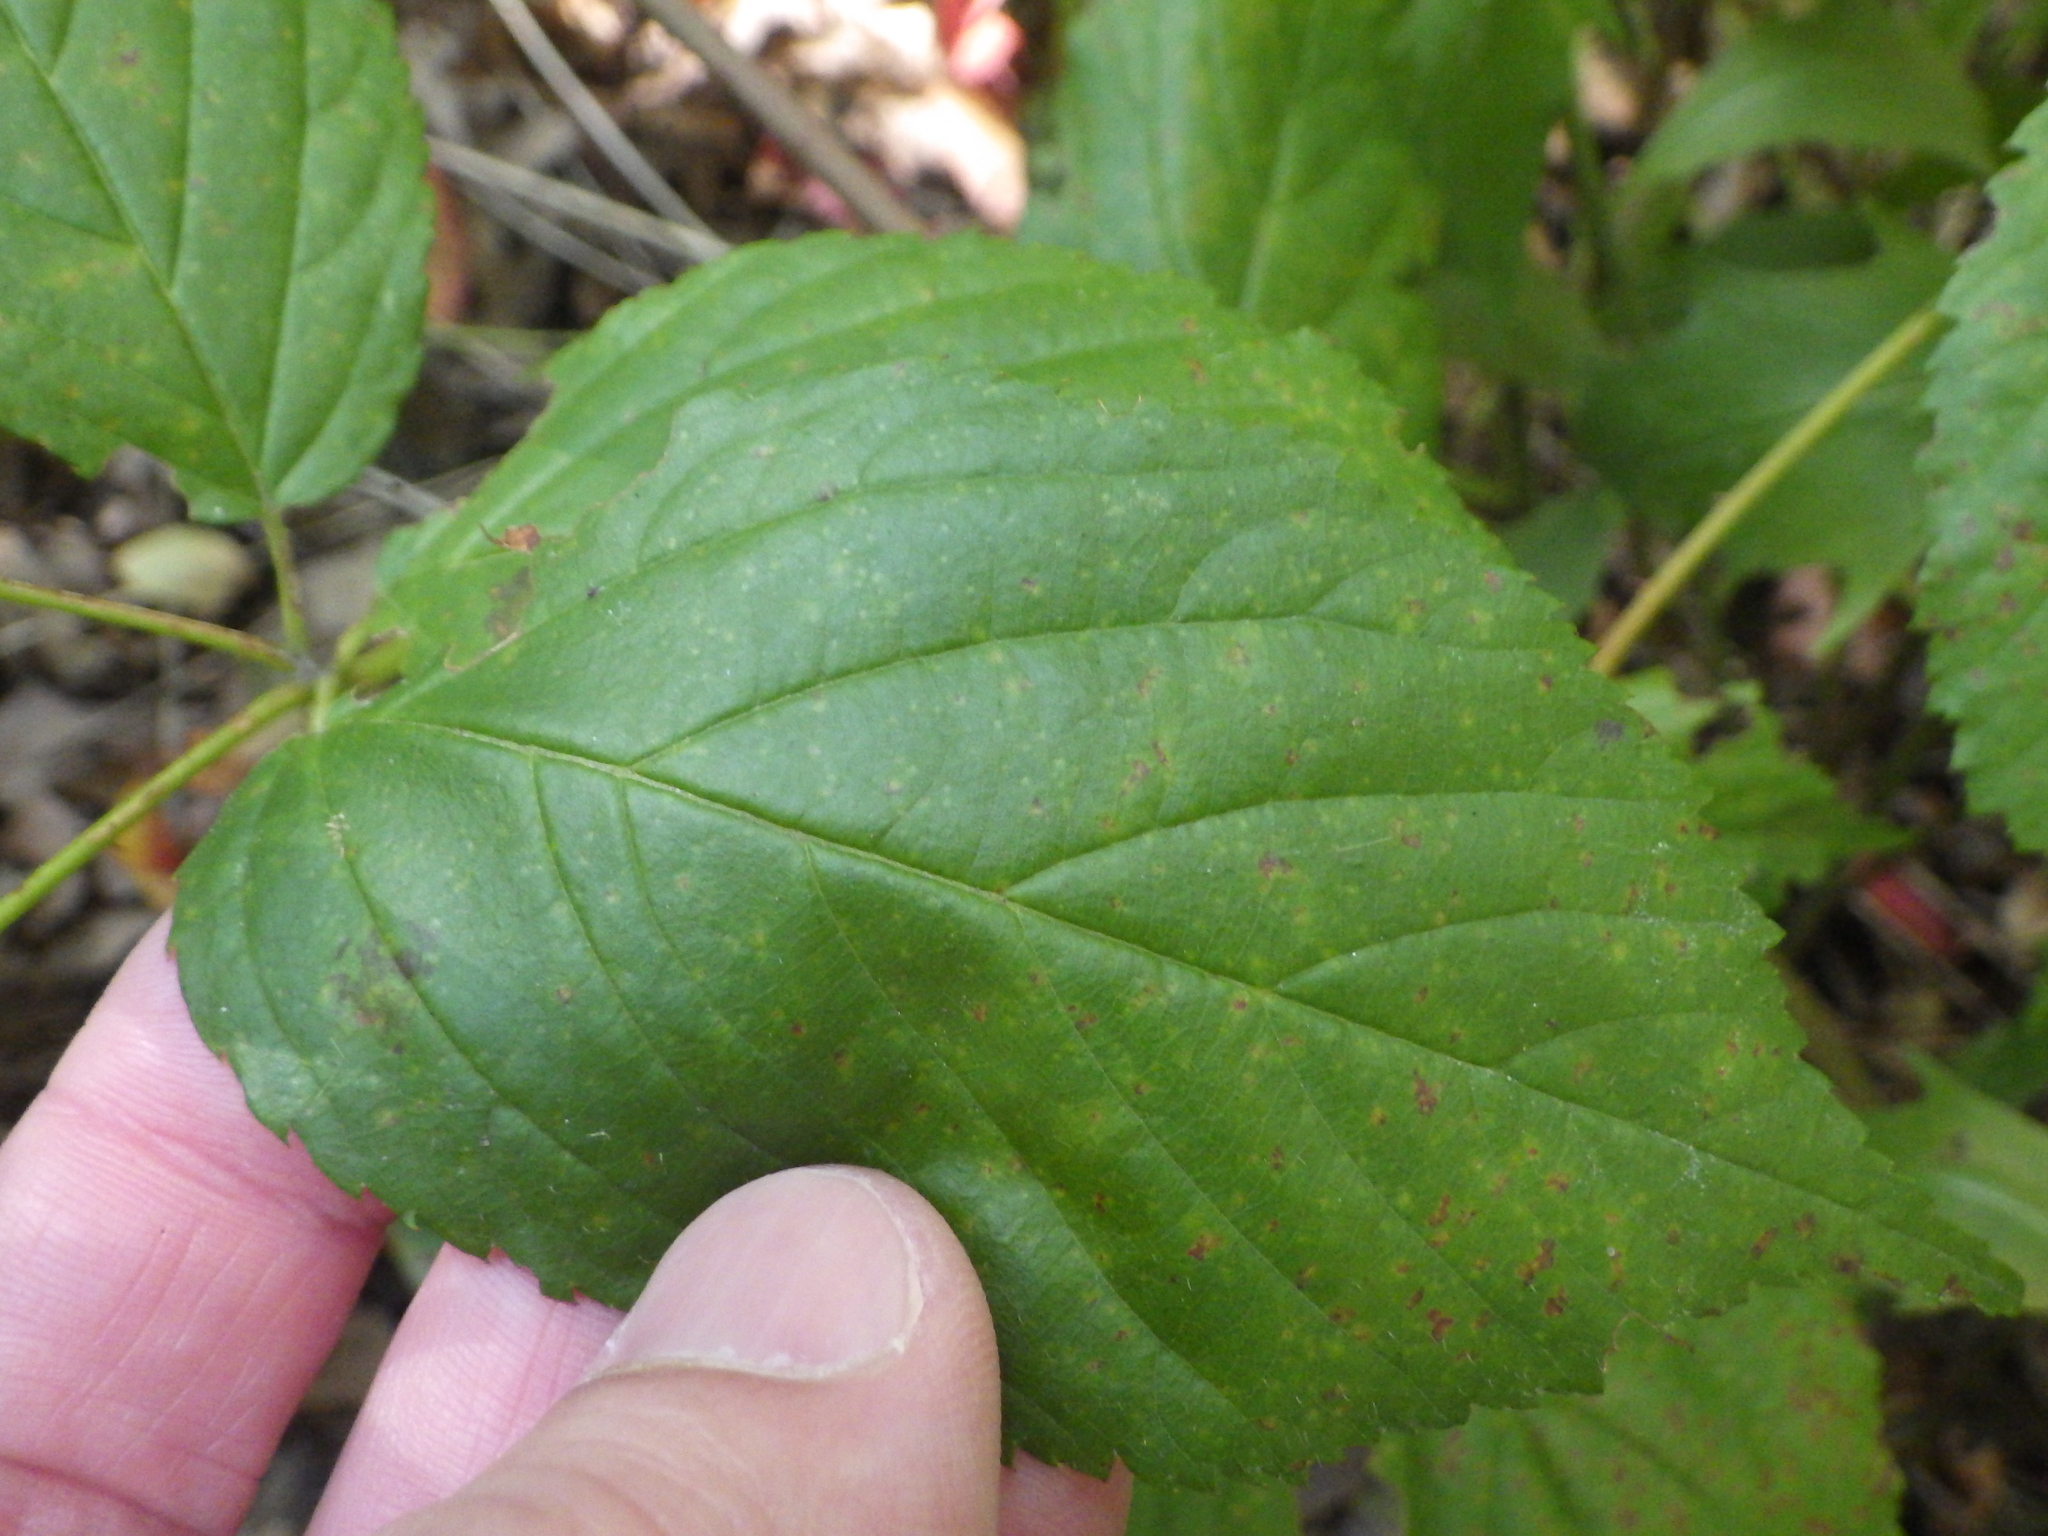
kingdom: Plantae
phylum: Tracheophyta
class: Magnoliopsida
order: Rosales
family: Rosaceae
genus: Rubus
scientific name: Rubus allegheniensis
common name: Allegheny blackberry
